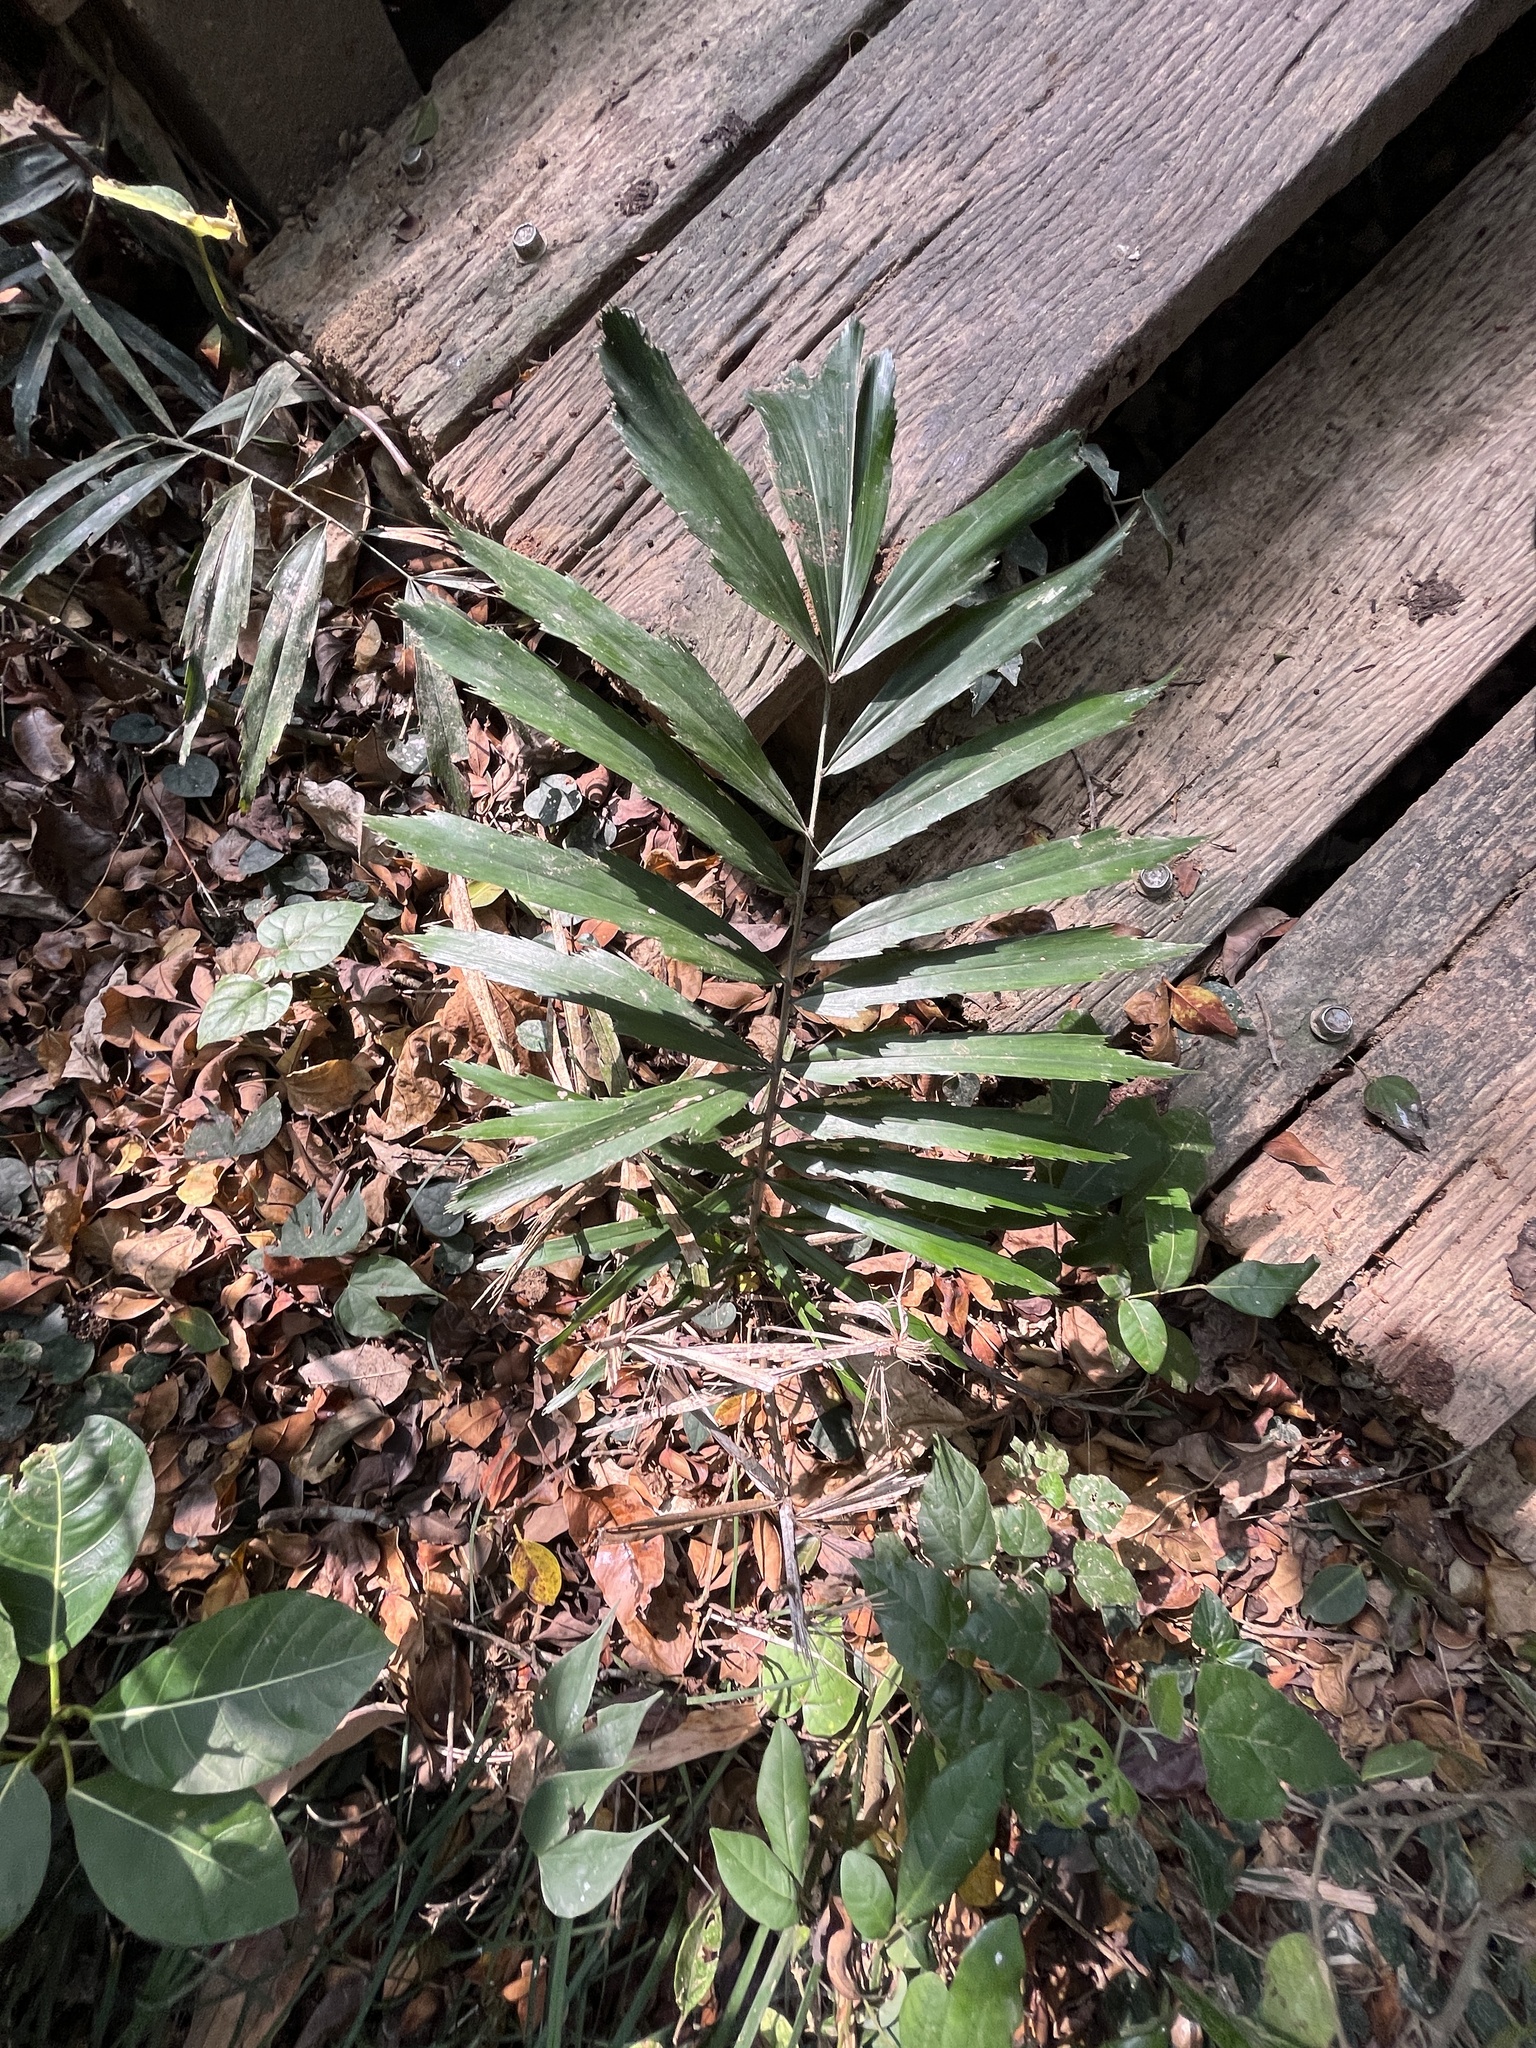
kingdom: Plantae
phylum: Tracheophyta
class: Liliopsida
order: Arecales
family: Arecaceae
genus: Arenga
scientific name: Arenga engleri
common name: Formosan sugar palm
